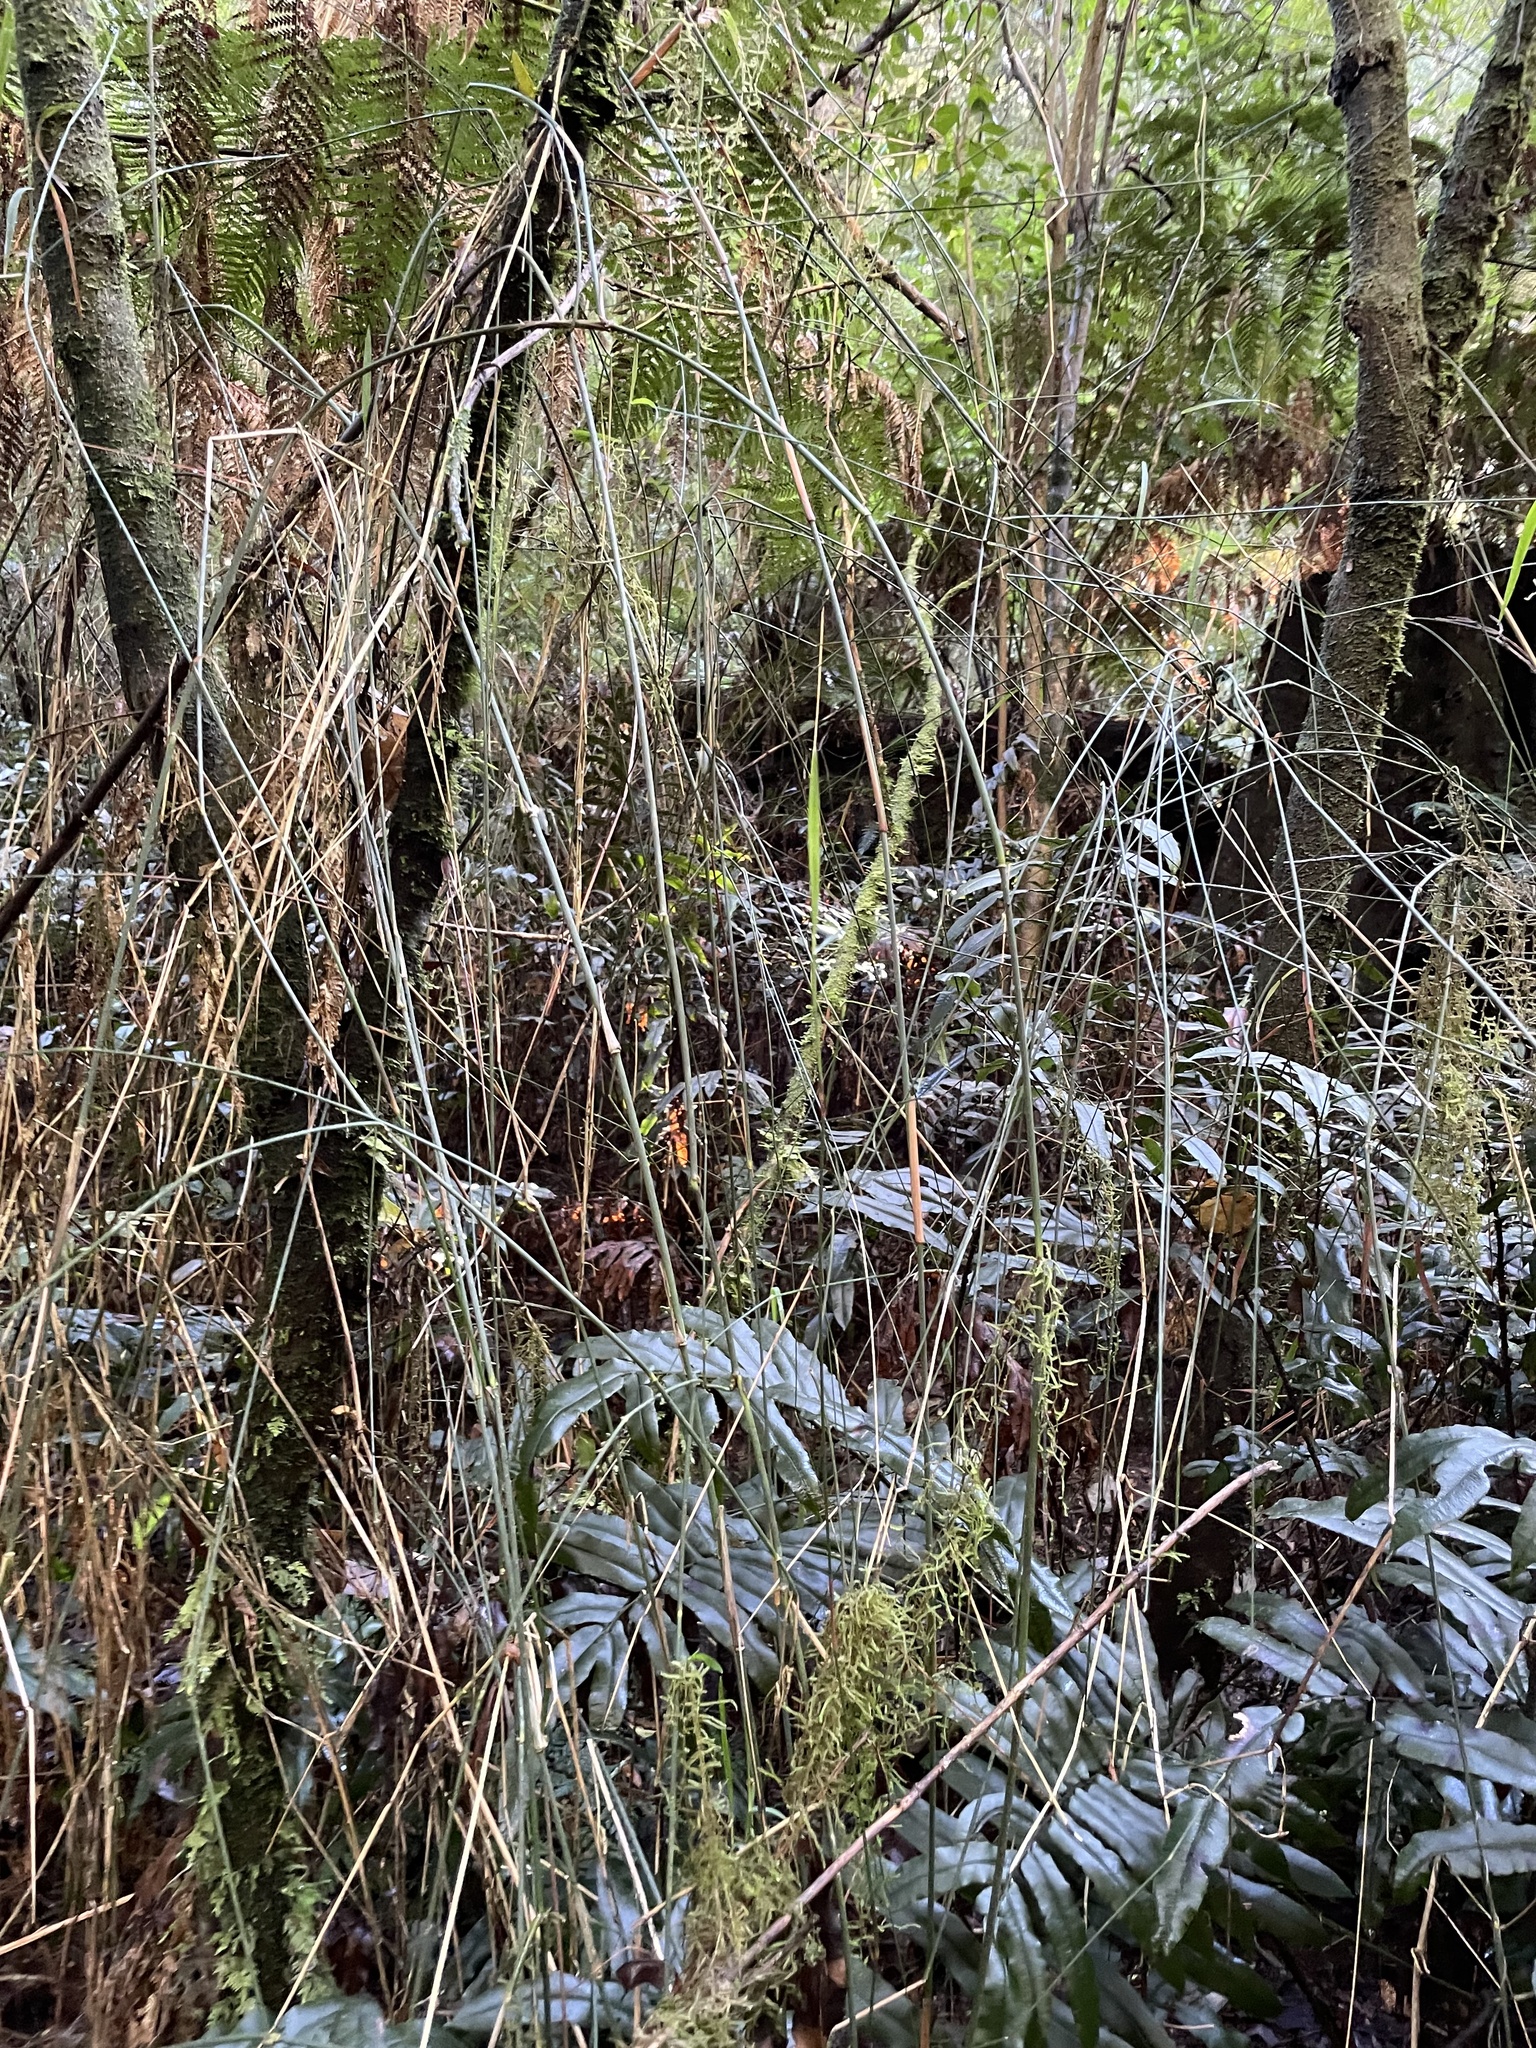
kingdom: Plantae
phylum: Tracheophyta
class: Liliopsida
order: Poales
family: Poaceae
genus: Tetrarrhena
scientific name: Tetrarrhena juncea
